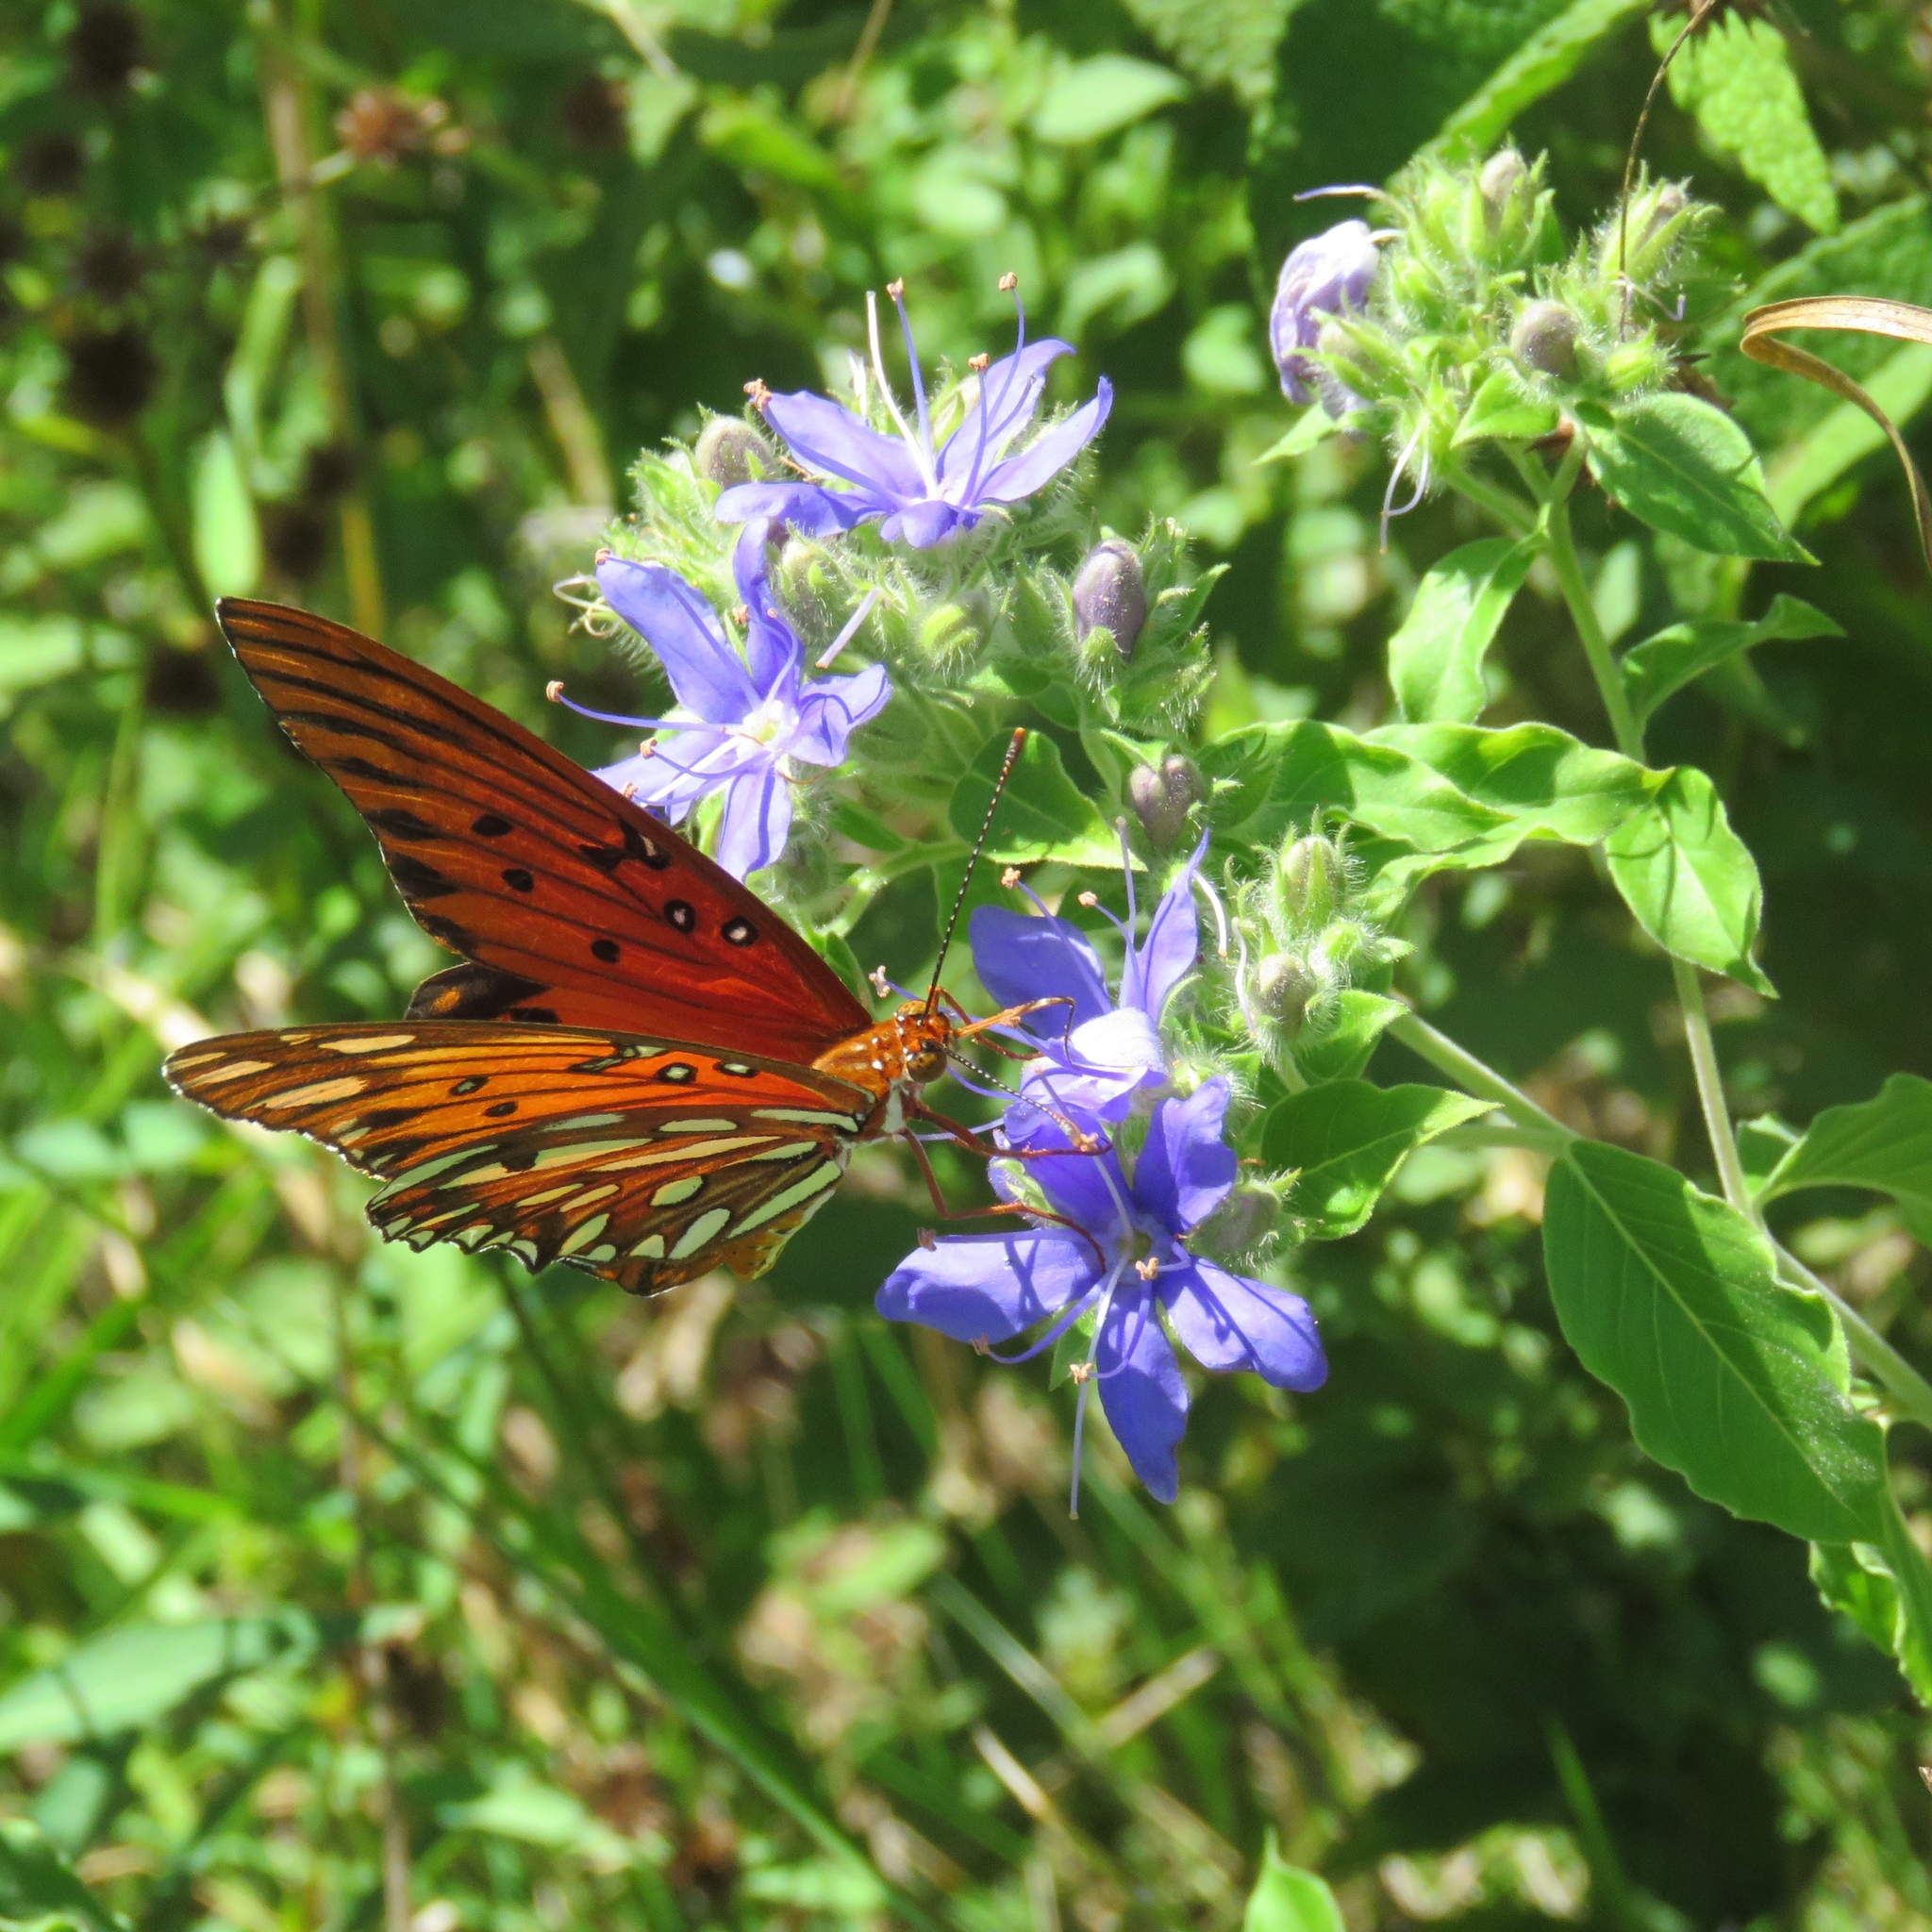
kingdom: Animalia
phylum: Arthropoda
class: Insecta
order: Lepidoptera
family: Nymphalidae
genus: Dione
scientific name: Dione vanillae
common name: Gulf fritillary
